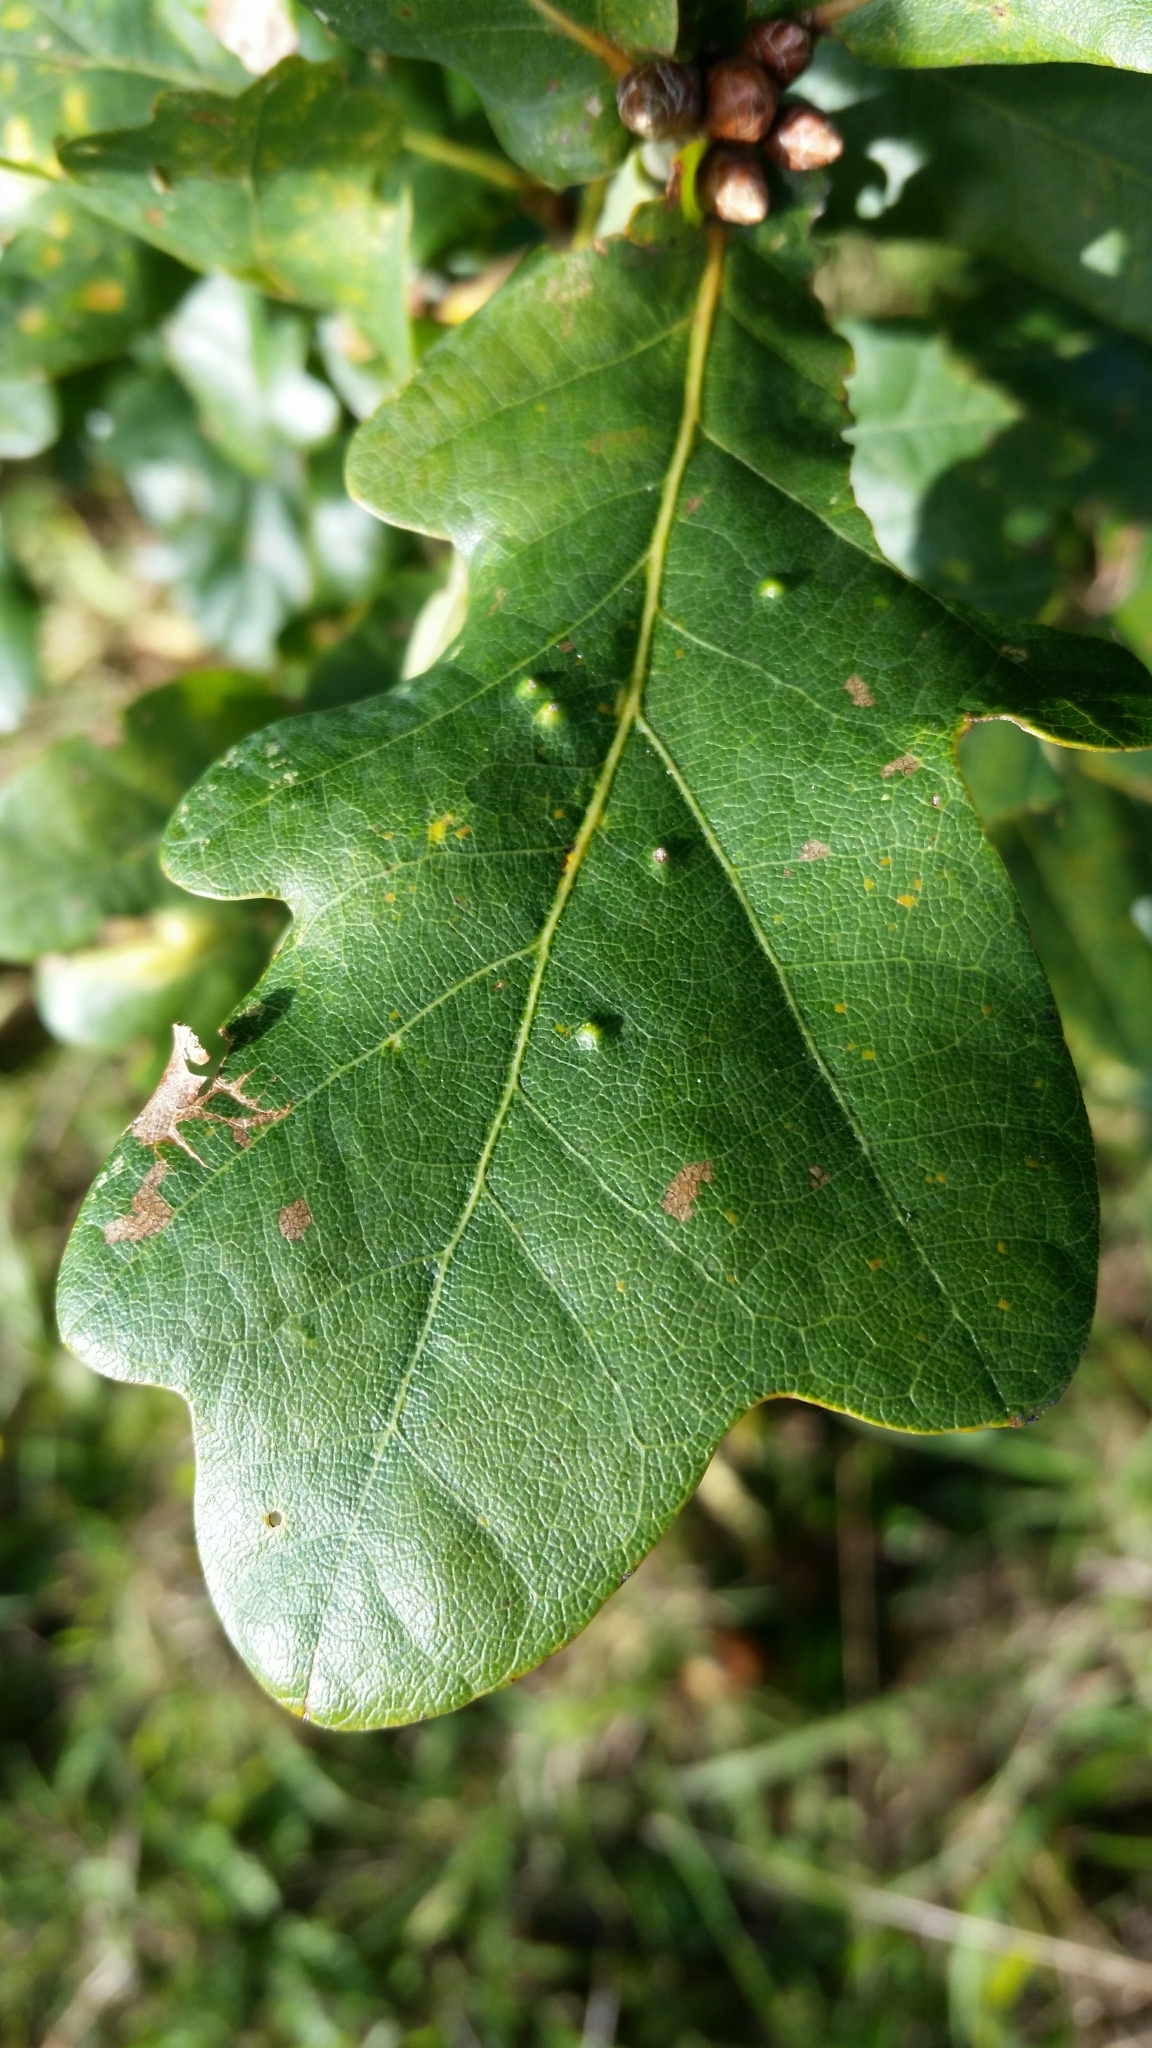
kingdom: Animalia
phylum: Arthropoda
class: Insecta
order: Hemiptera
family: Triozidae
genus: Trioza
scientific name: Trioza remota
